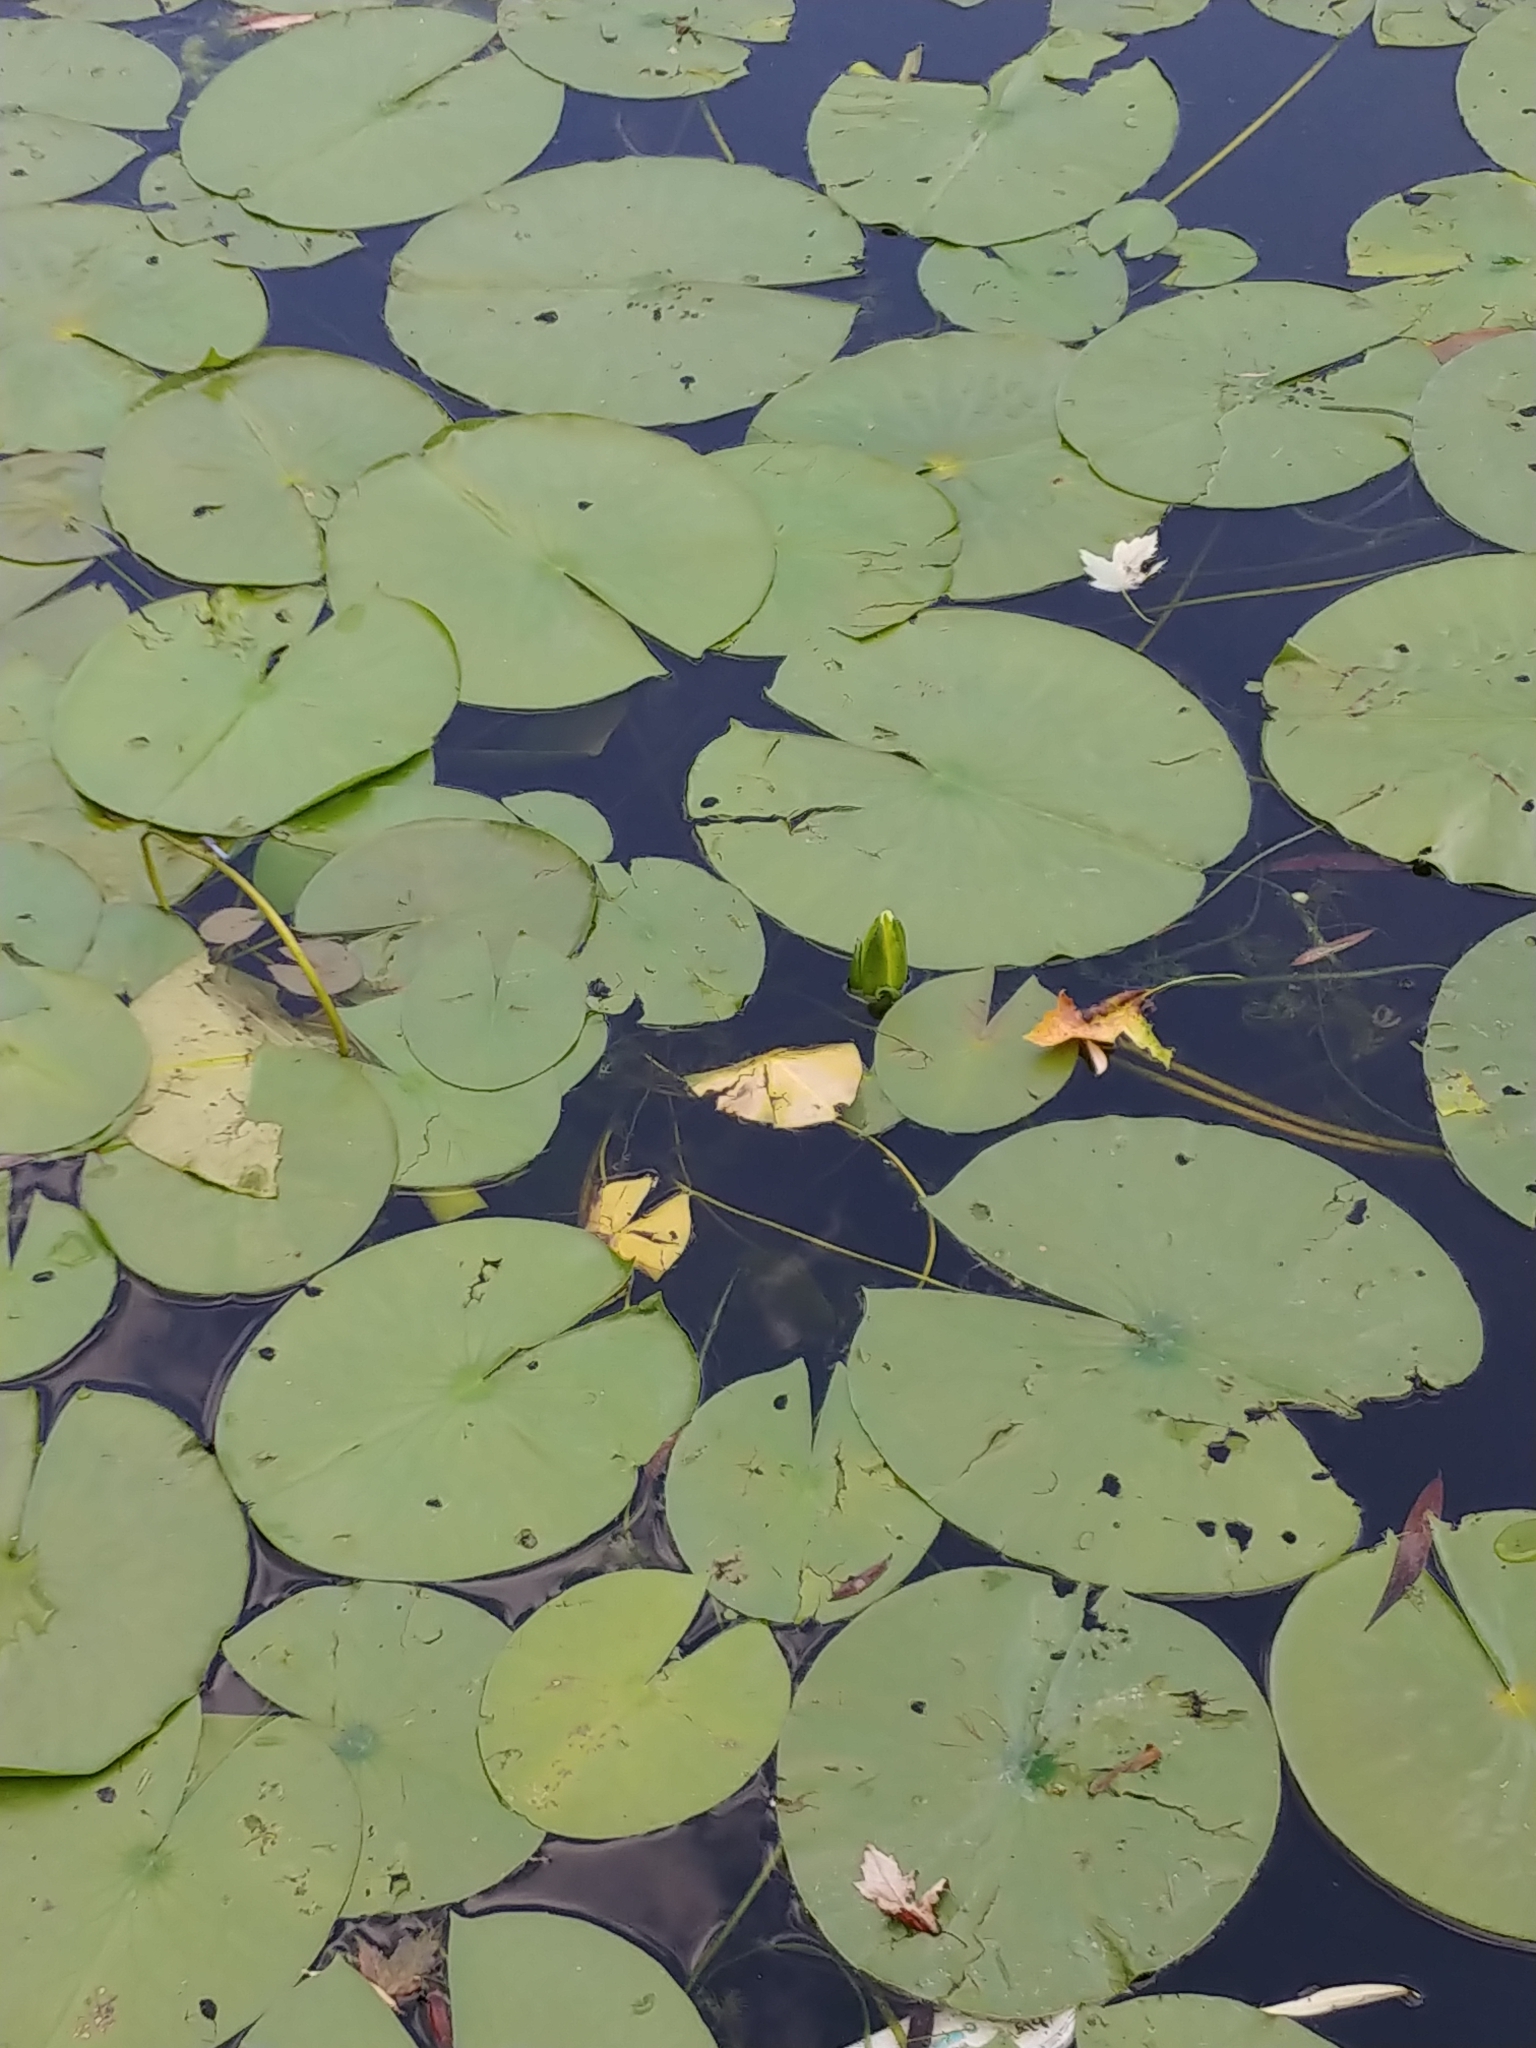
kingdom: Plantae
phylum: Tracheophyta
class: Magnoliopsida
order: Nymphaeales
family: Nymphaeaceae
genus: Nymphaea
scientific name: Nymphaea odorata
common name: Fragrant water-lily
